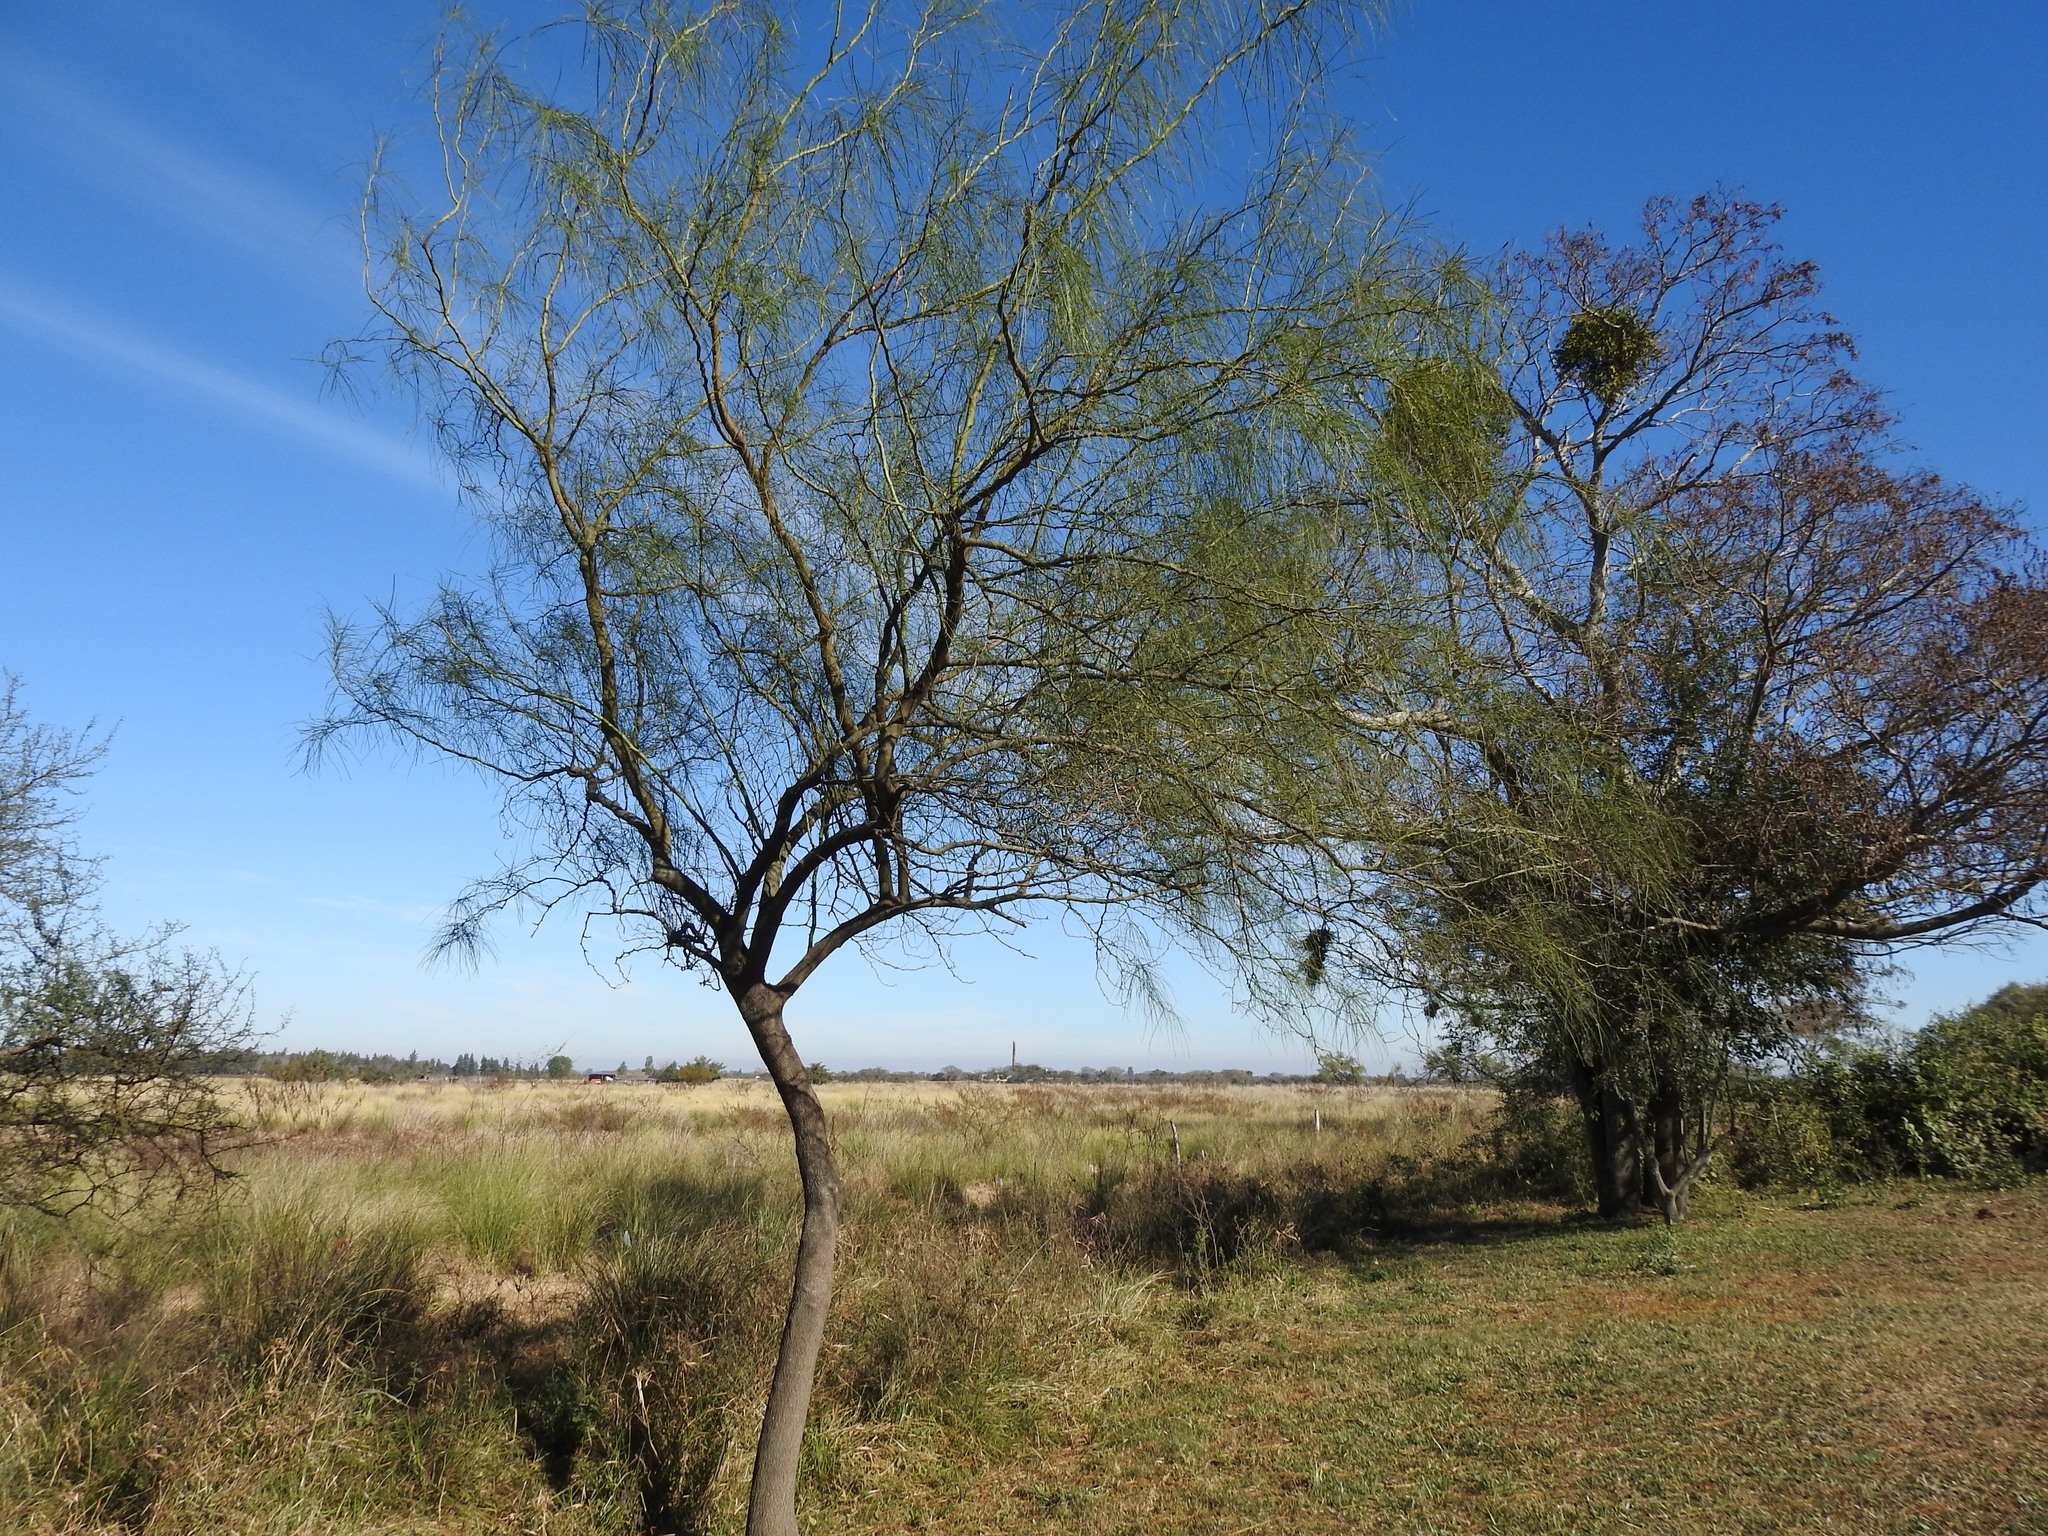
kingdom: Plantae
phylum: Tracheophyta
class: Magnoliopsida
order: Fabales
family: Fabaceae
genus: Parkinsonia
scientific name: Parkinsonia aculeata
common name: Jerusalem thorn
